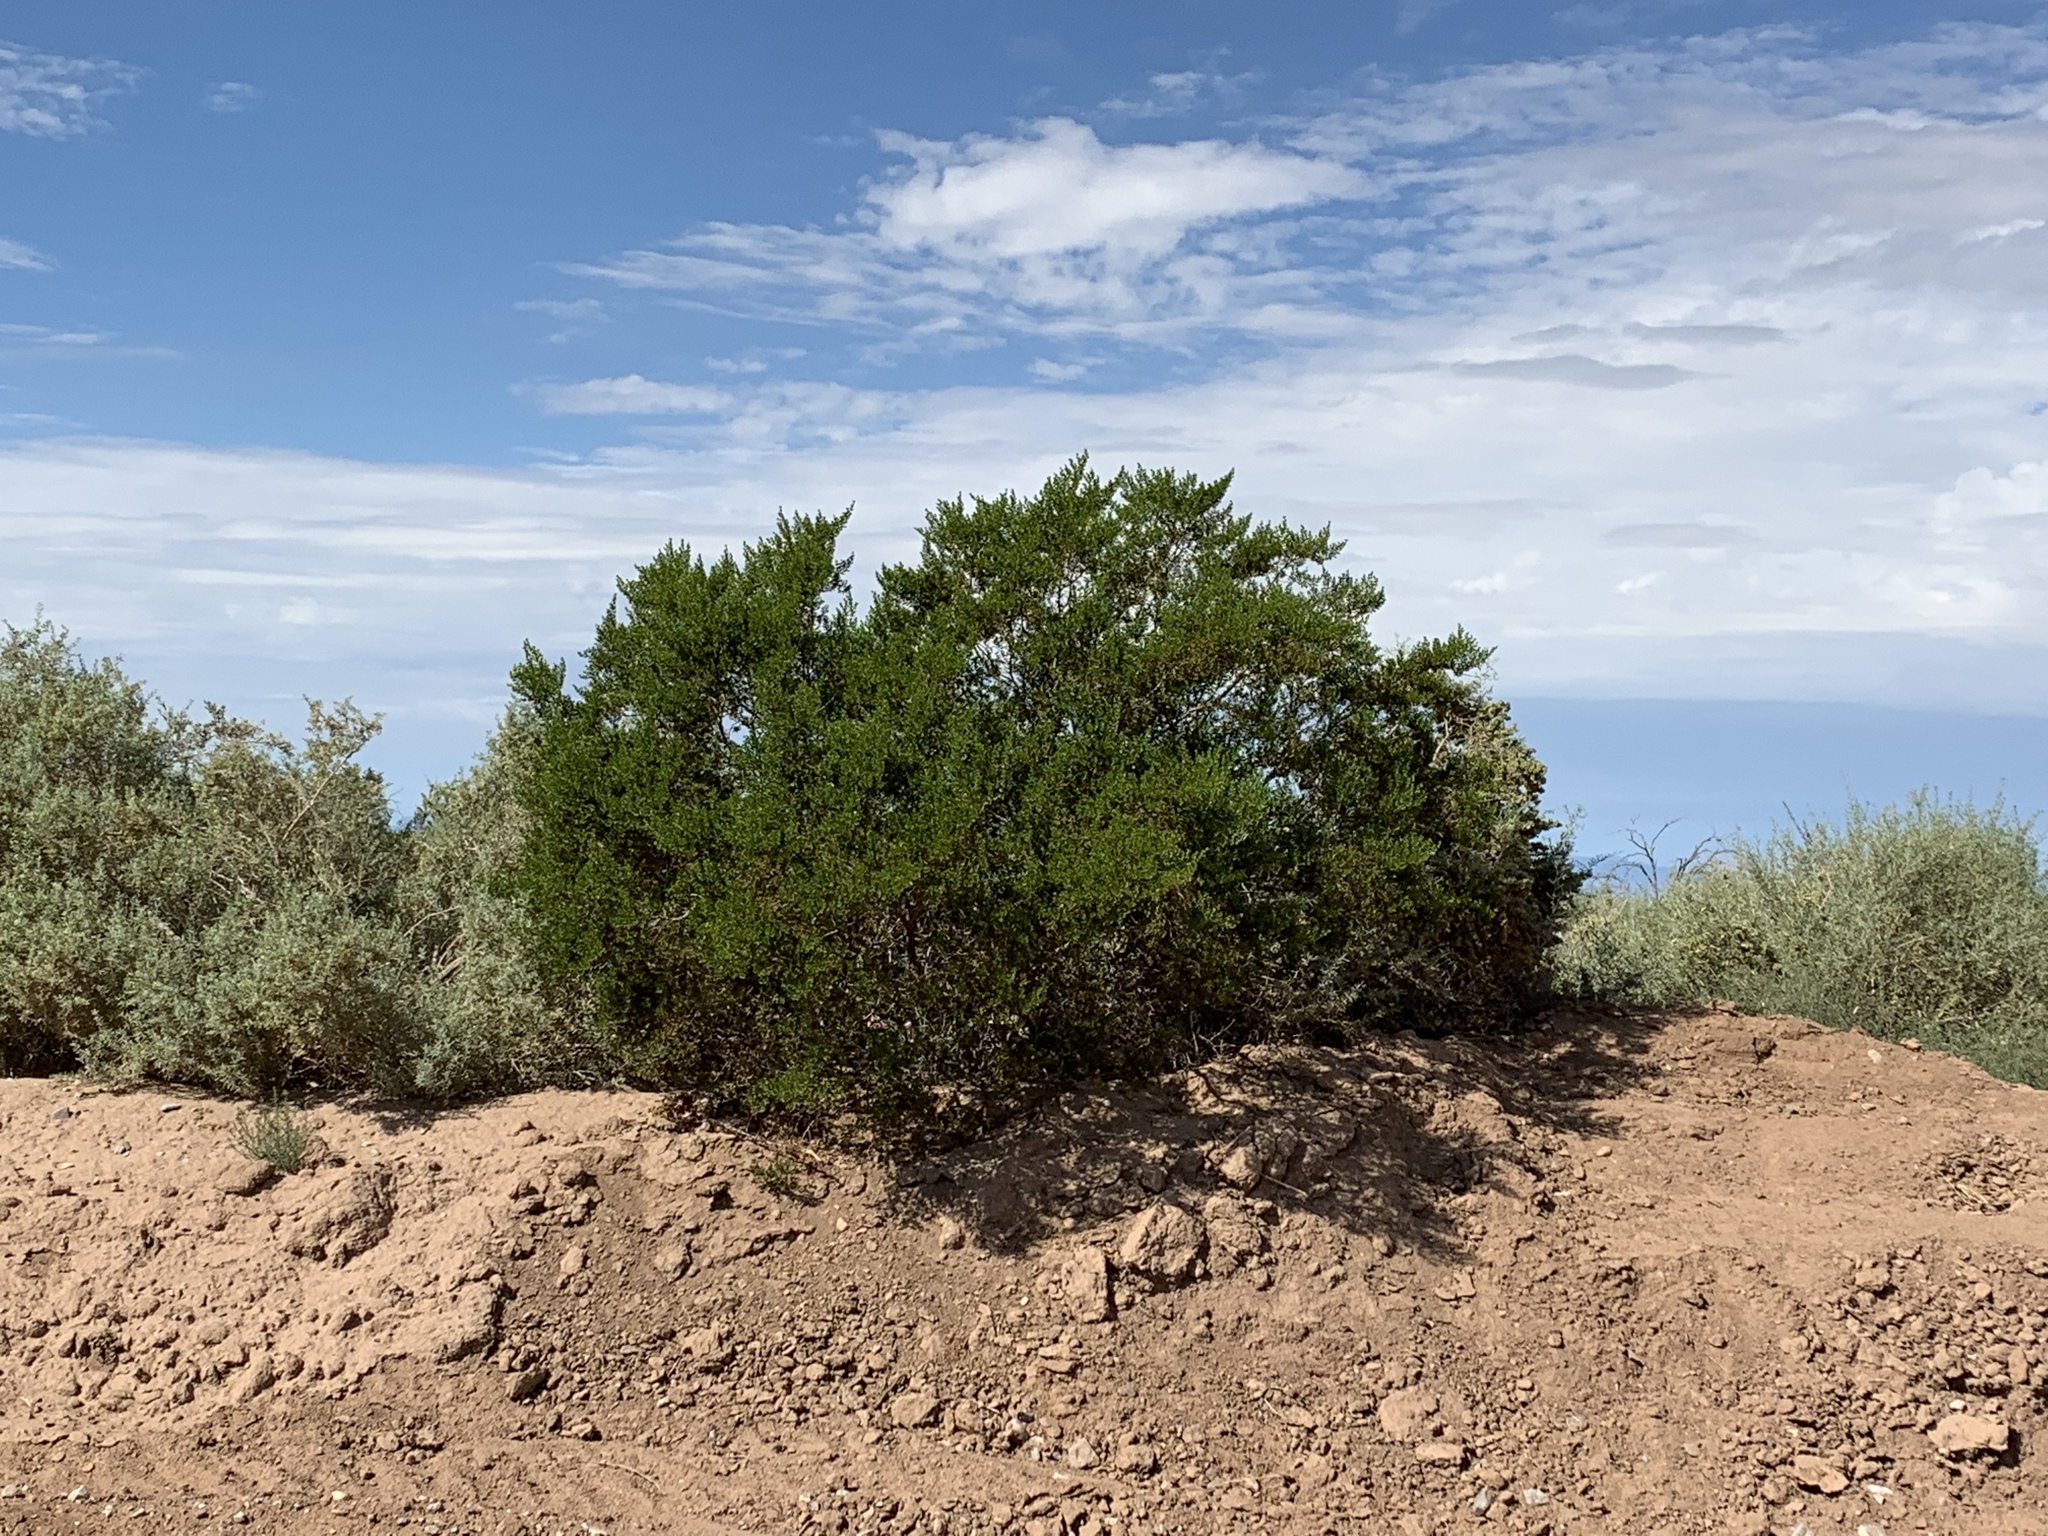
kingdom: Plantae
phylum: Tracheophyta
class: Magnoliopsida
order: Zygophyllales
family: Zygophyllaceae
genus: Larrea
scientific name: Larrea tridentata
